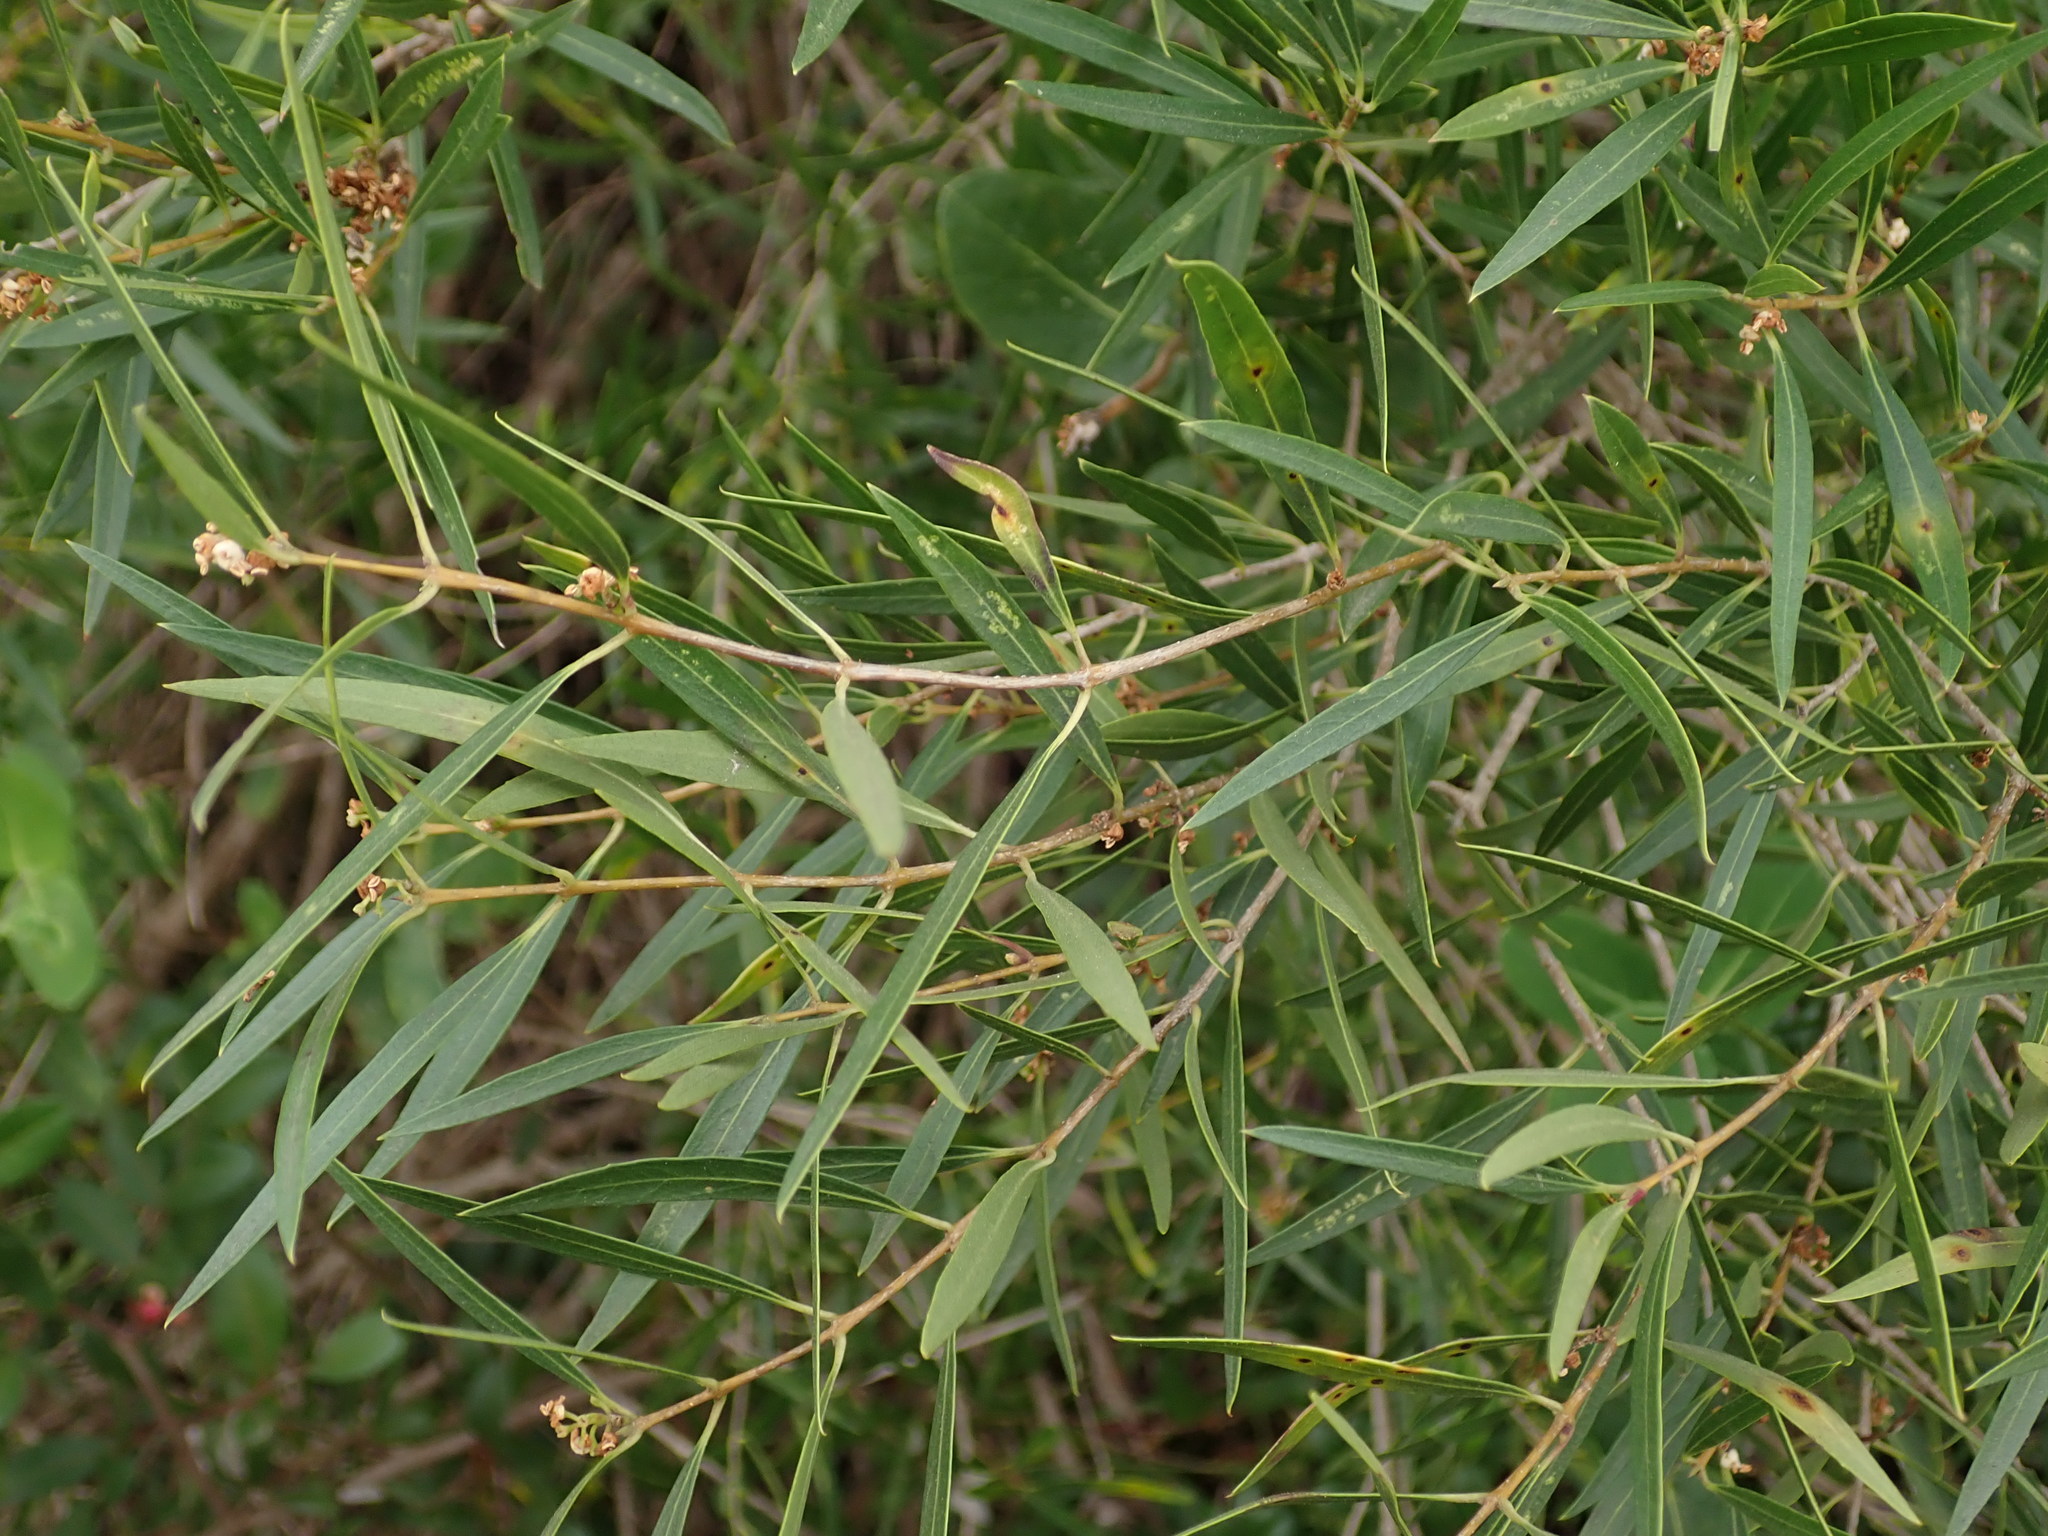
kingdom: Plantae
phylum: Tracheophyta
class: Magnoliopsida
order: Lamiales
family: Oleaceae
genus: Phillyrea
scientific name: Phillyrea angustifolia
